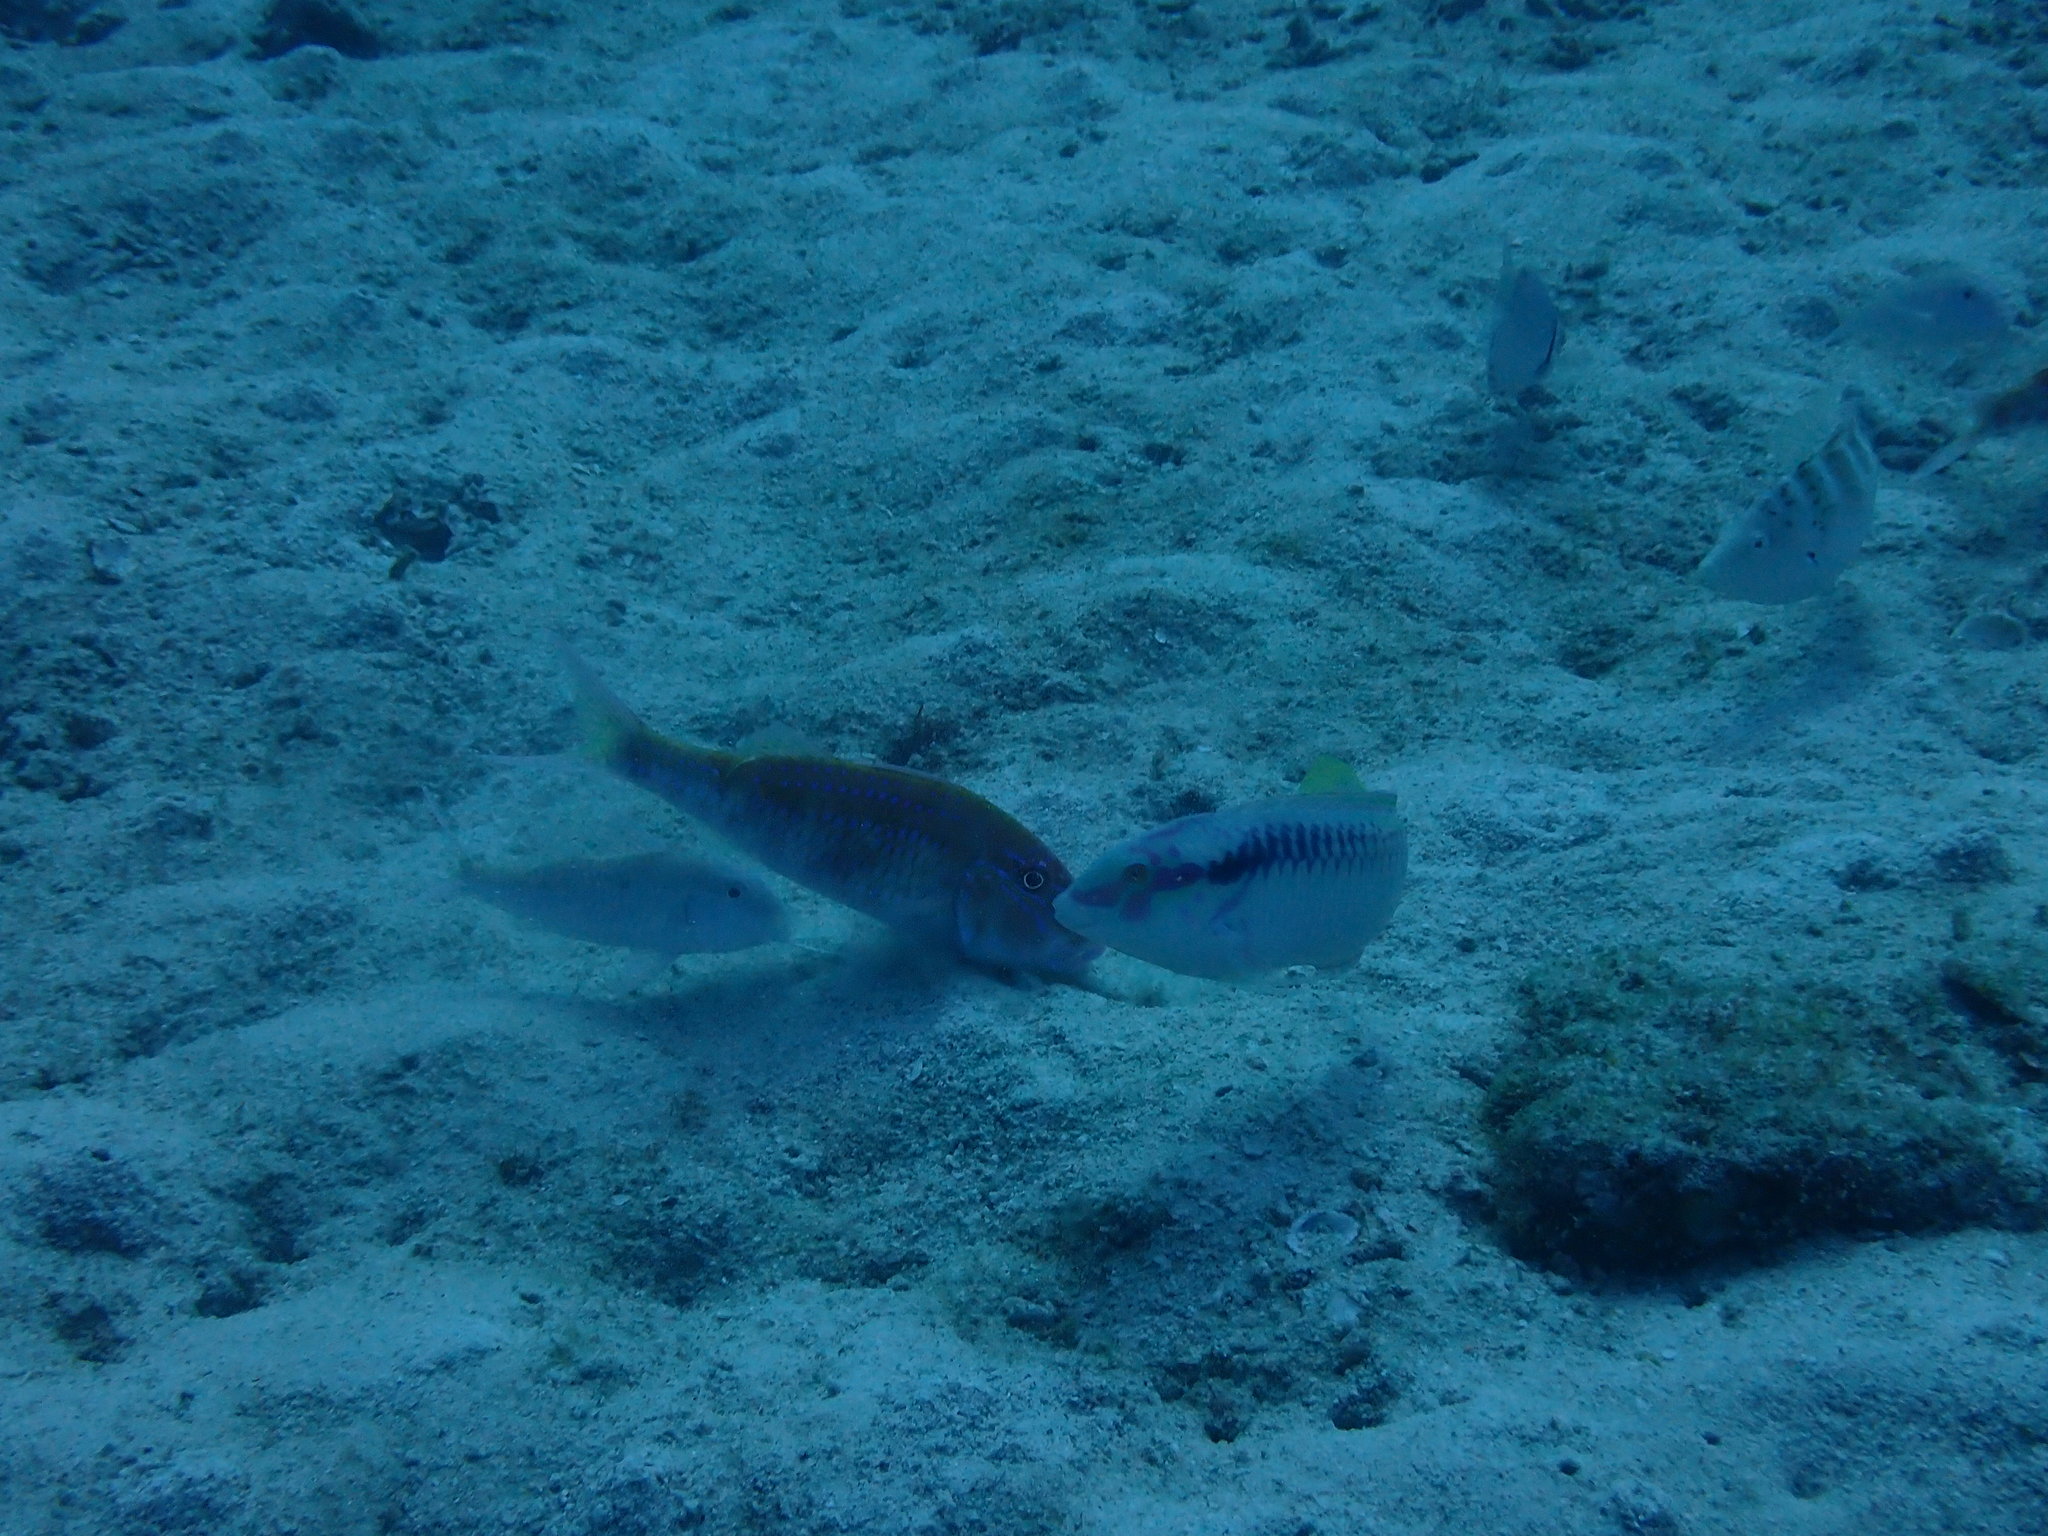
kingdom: Animalia
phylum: Chordata
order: Perciformes
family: Labridae
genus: Halichoeres
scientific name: Halichoeres scapularis
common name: Brownbanded wrasse
